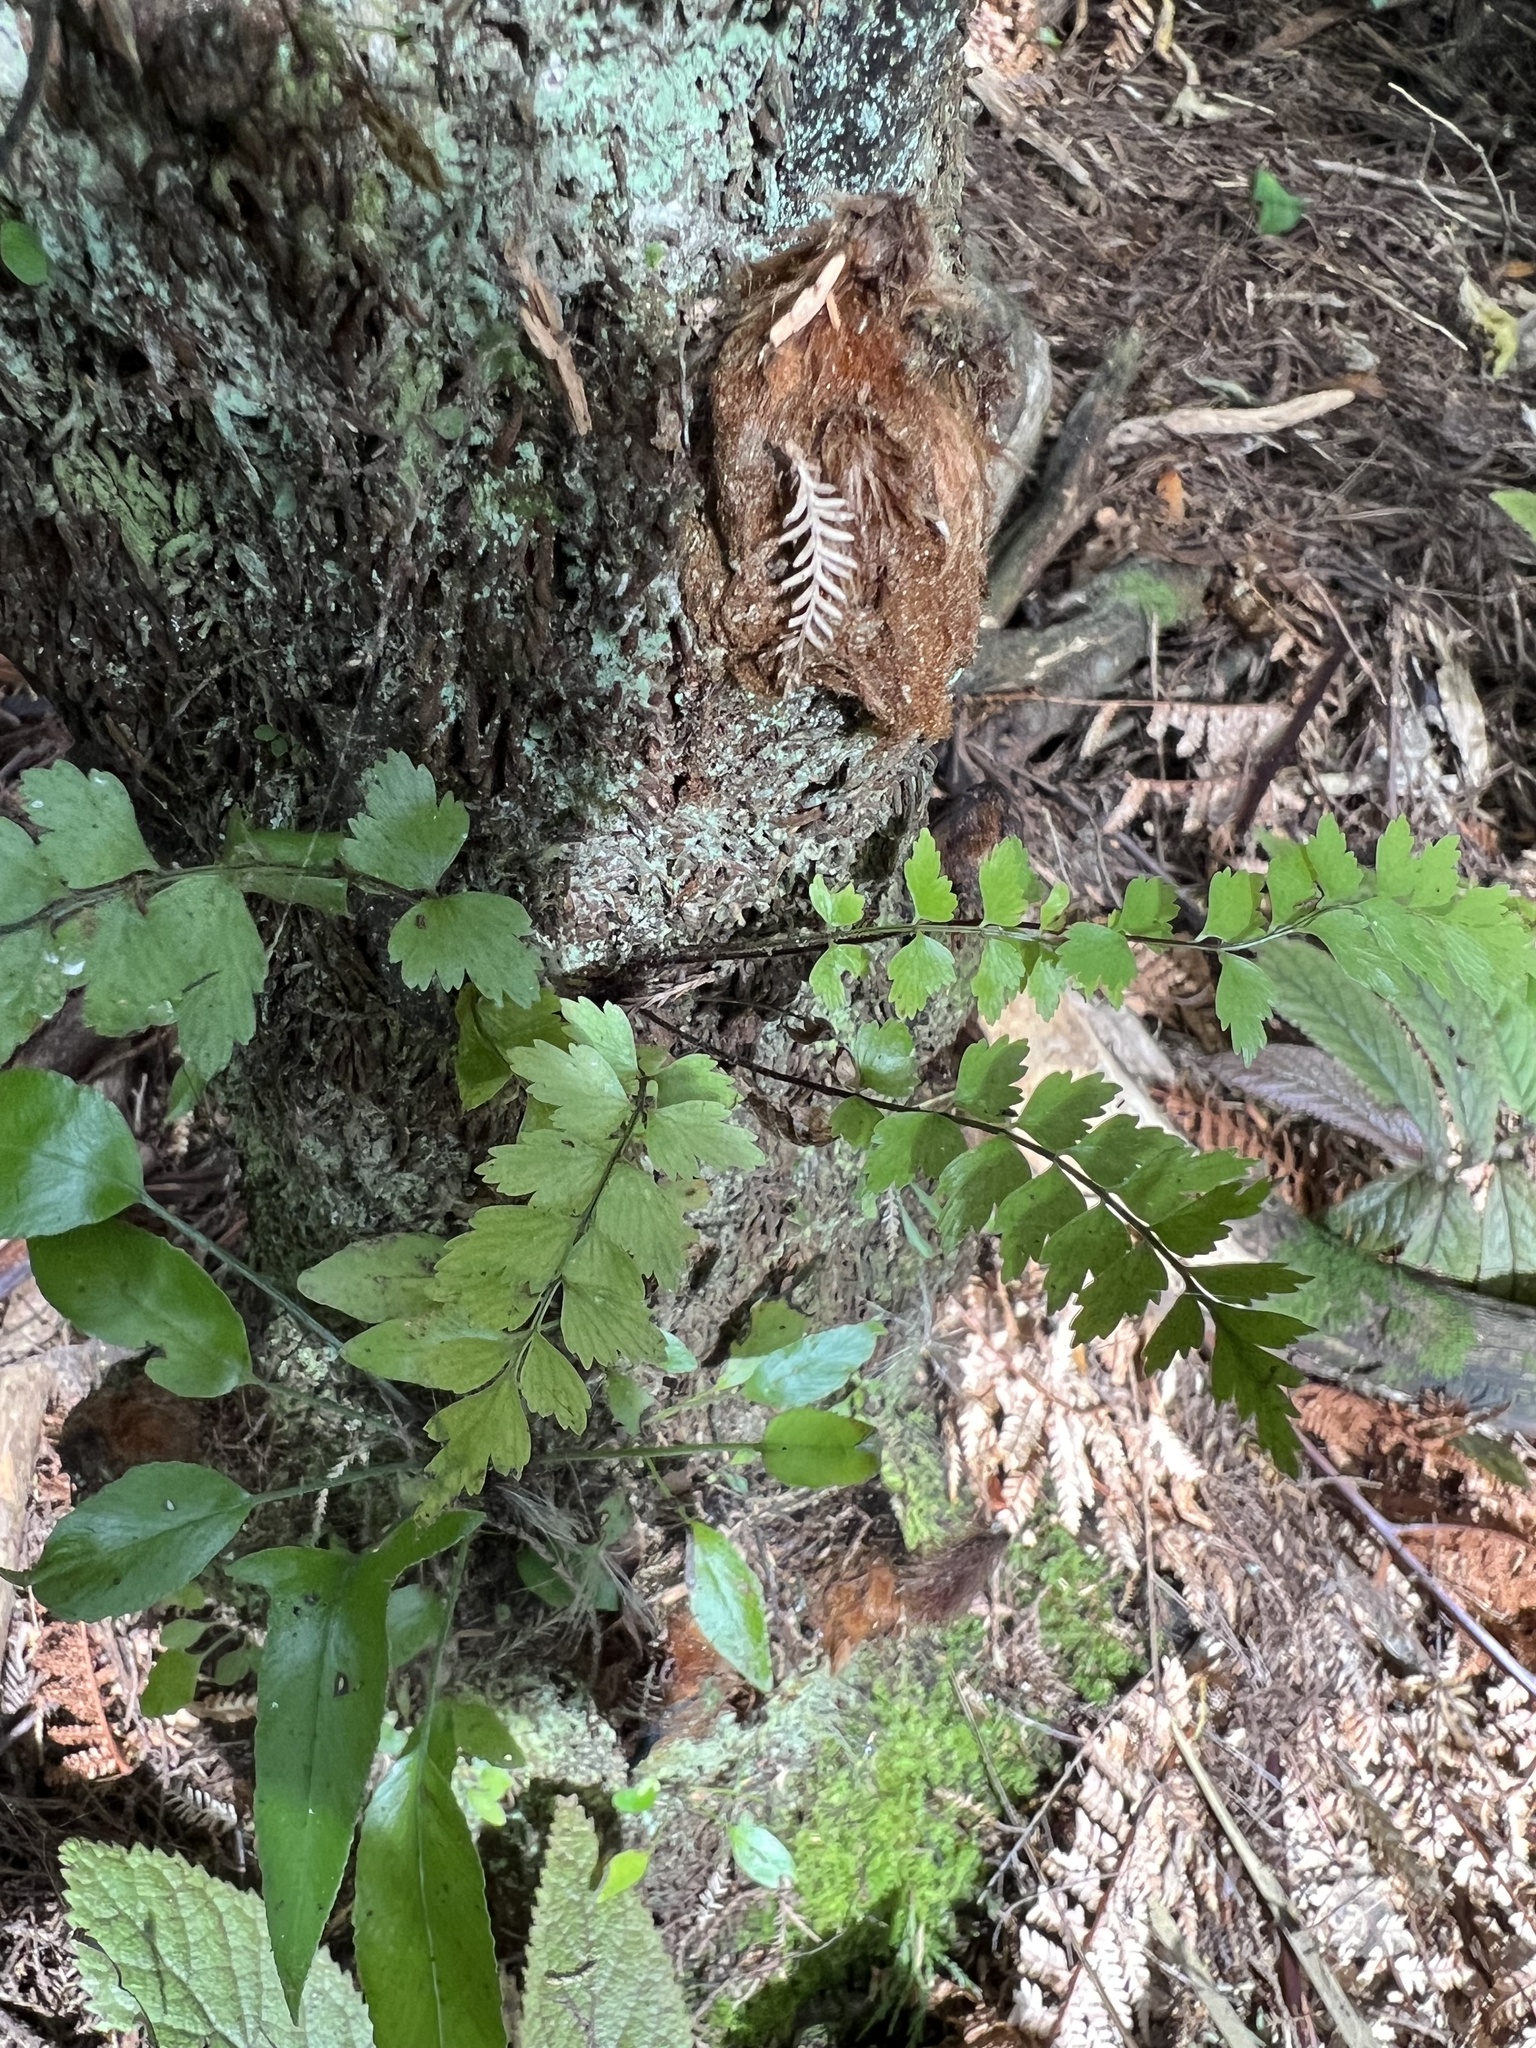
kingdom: Plantae
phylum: Tracheophyta
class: Polypodiopsida
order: Polypodiales
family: Aspleniaceae
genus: Asplenium
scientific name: Asplenium polyodon
